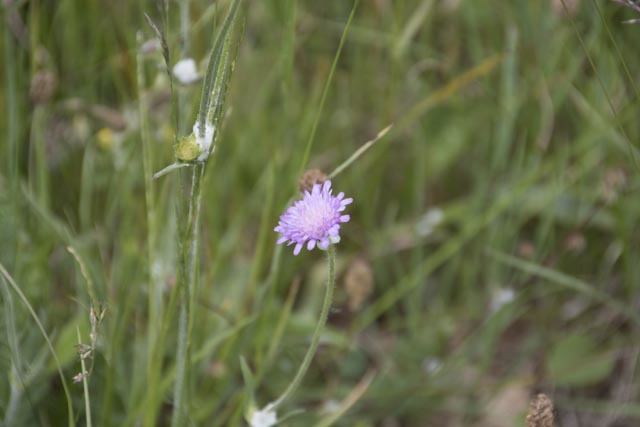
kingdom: Plantae
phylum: Tracheophyta
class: Magnoliopsida
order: Dipsacales
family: Caprifoliaceae
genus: Knautia
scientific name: Knautia arvensis
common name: Field scabiosa
